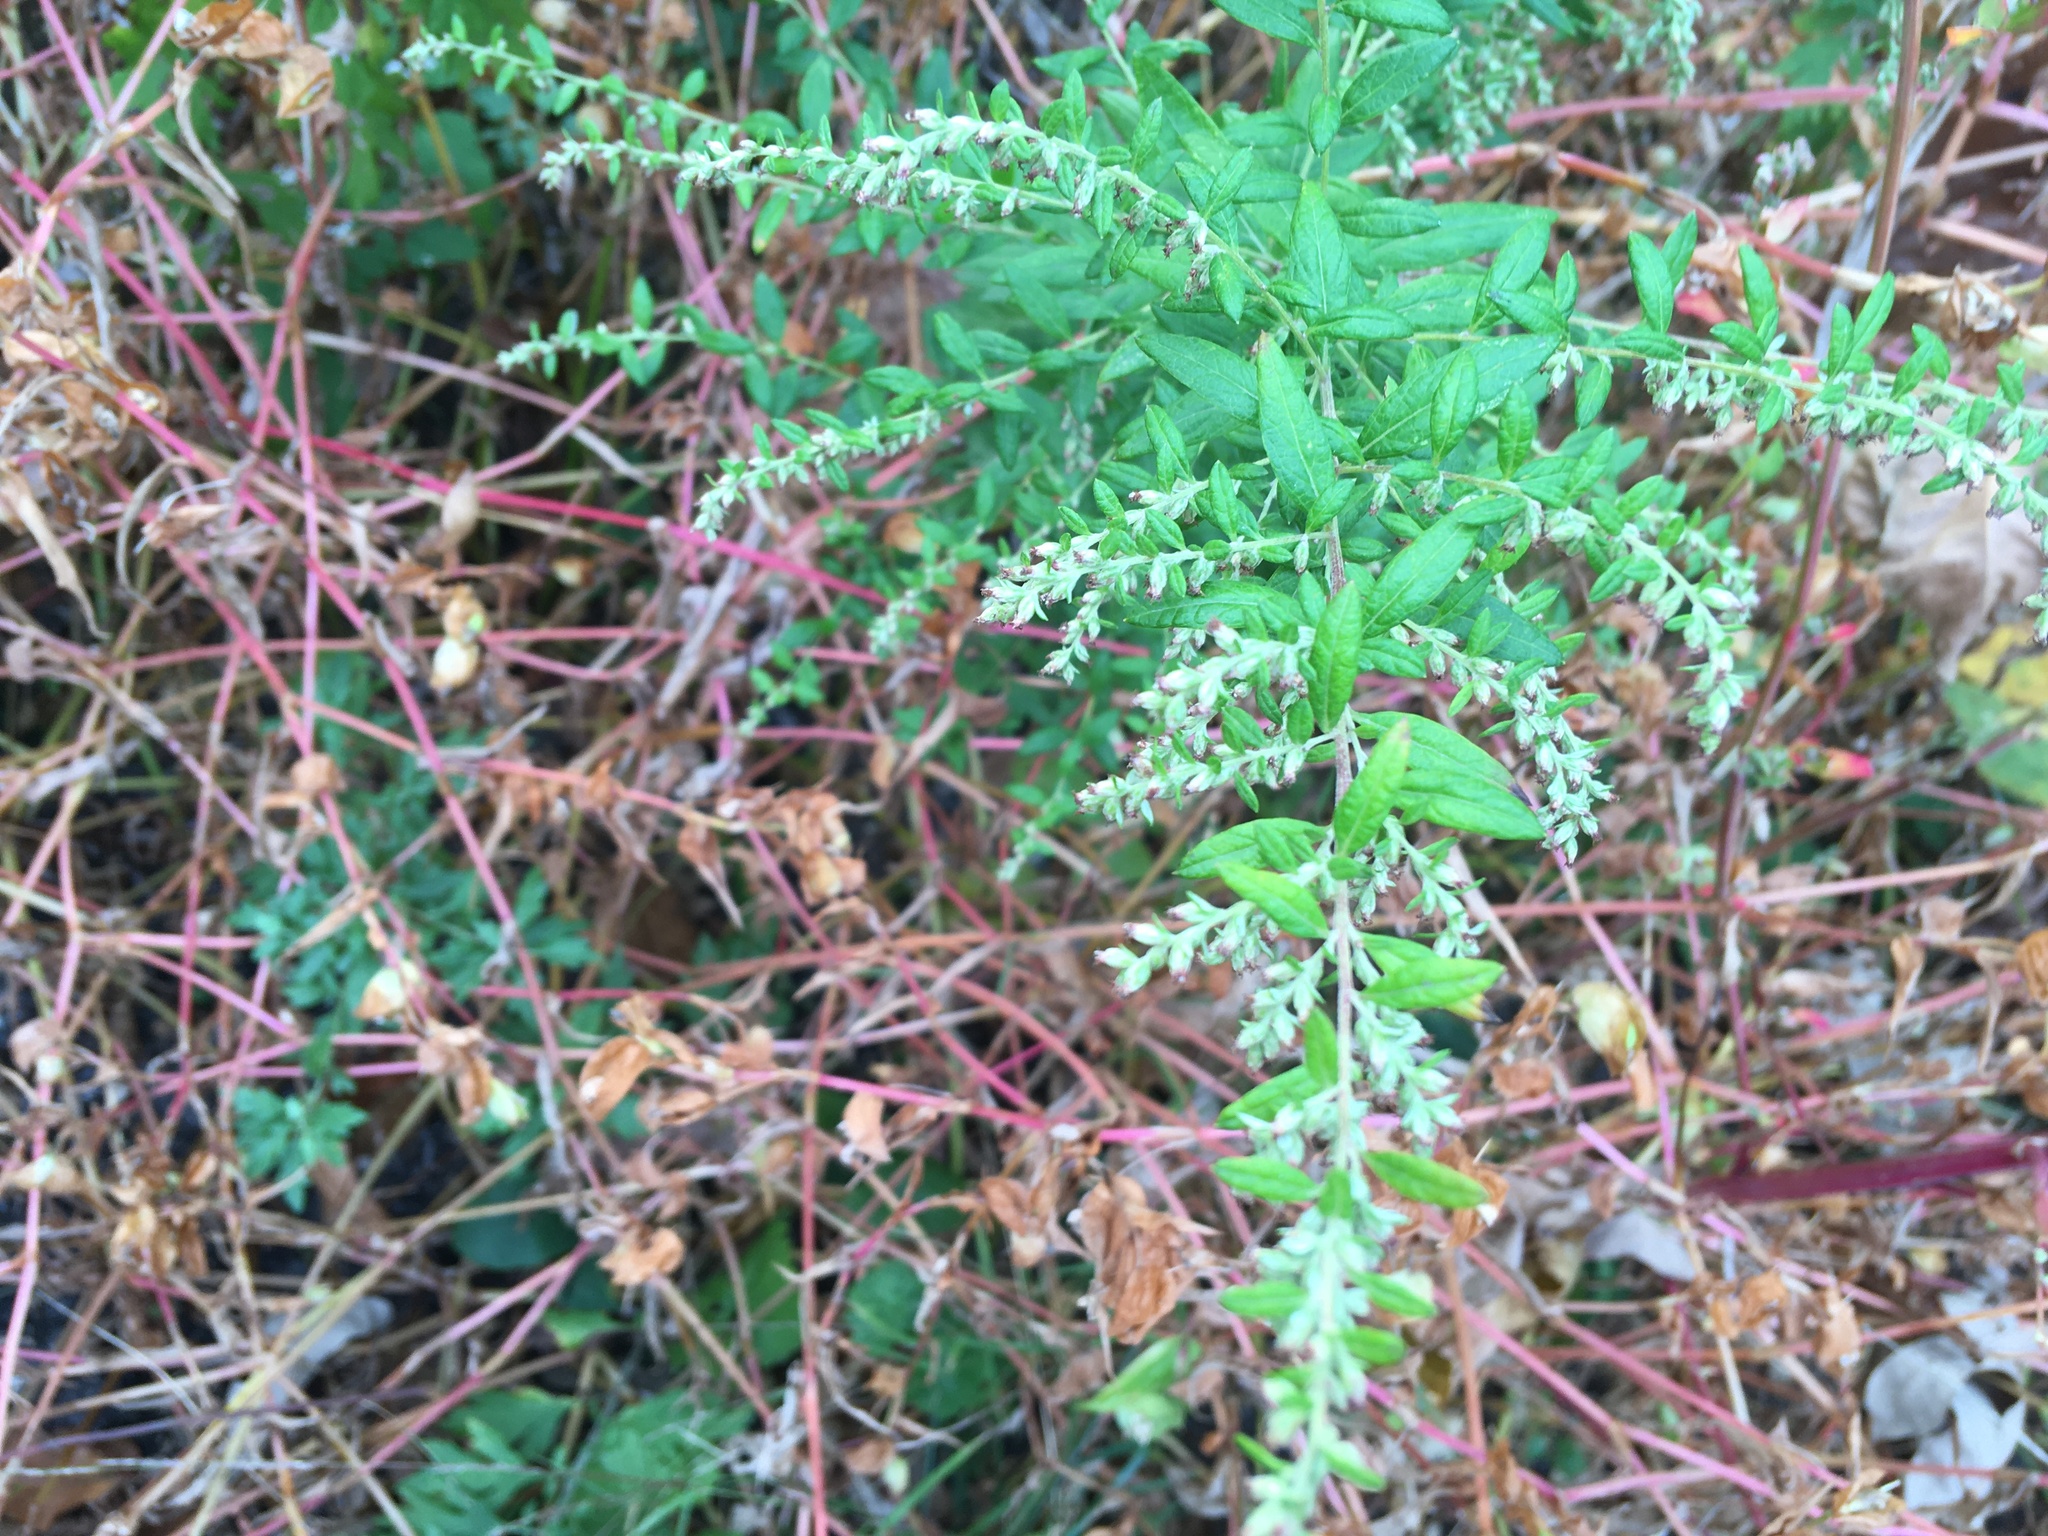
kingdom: Plantae
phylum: Tracheophyta
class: Magnoliopsida
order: Asterales
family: Asteraceae
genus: Artemisia
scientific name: Artemisia vulgaris
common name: Mugwort
